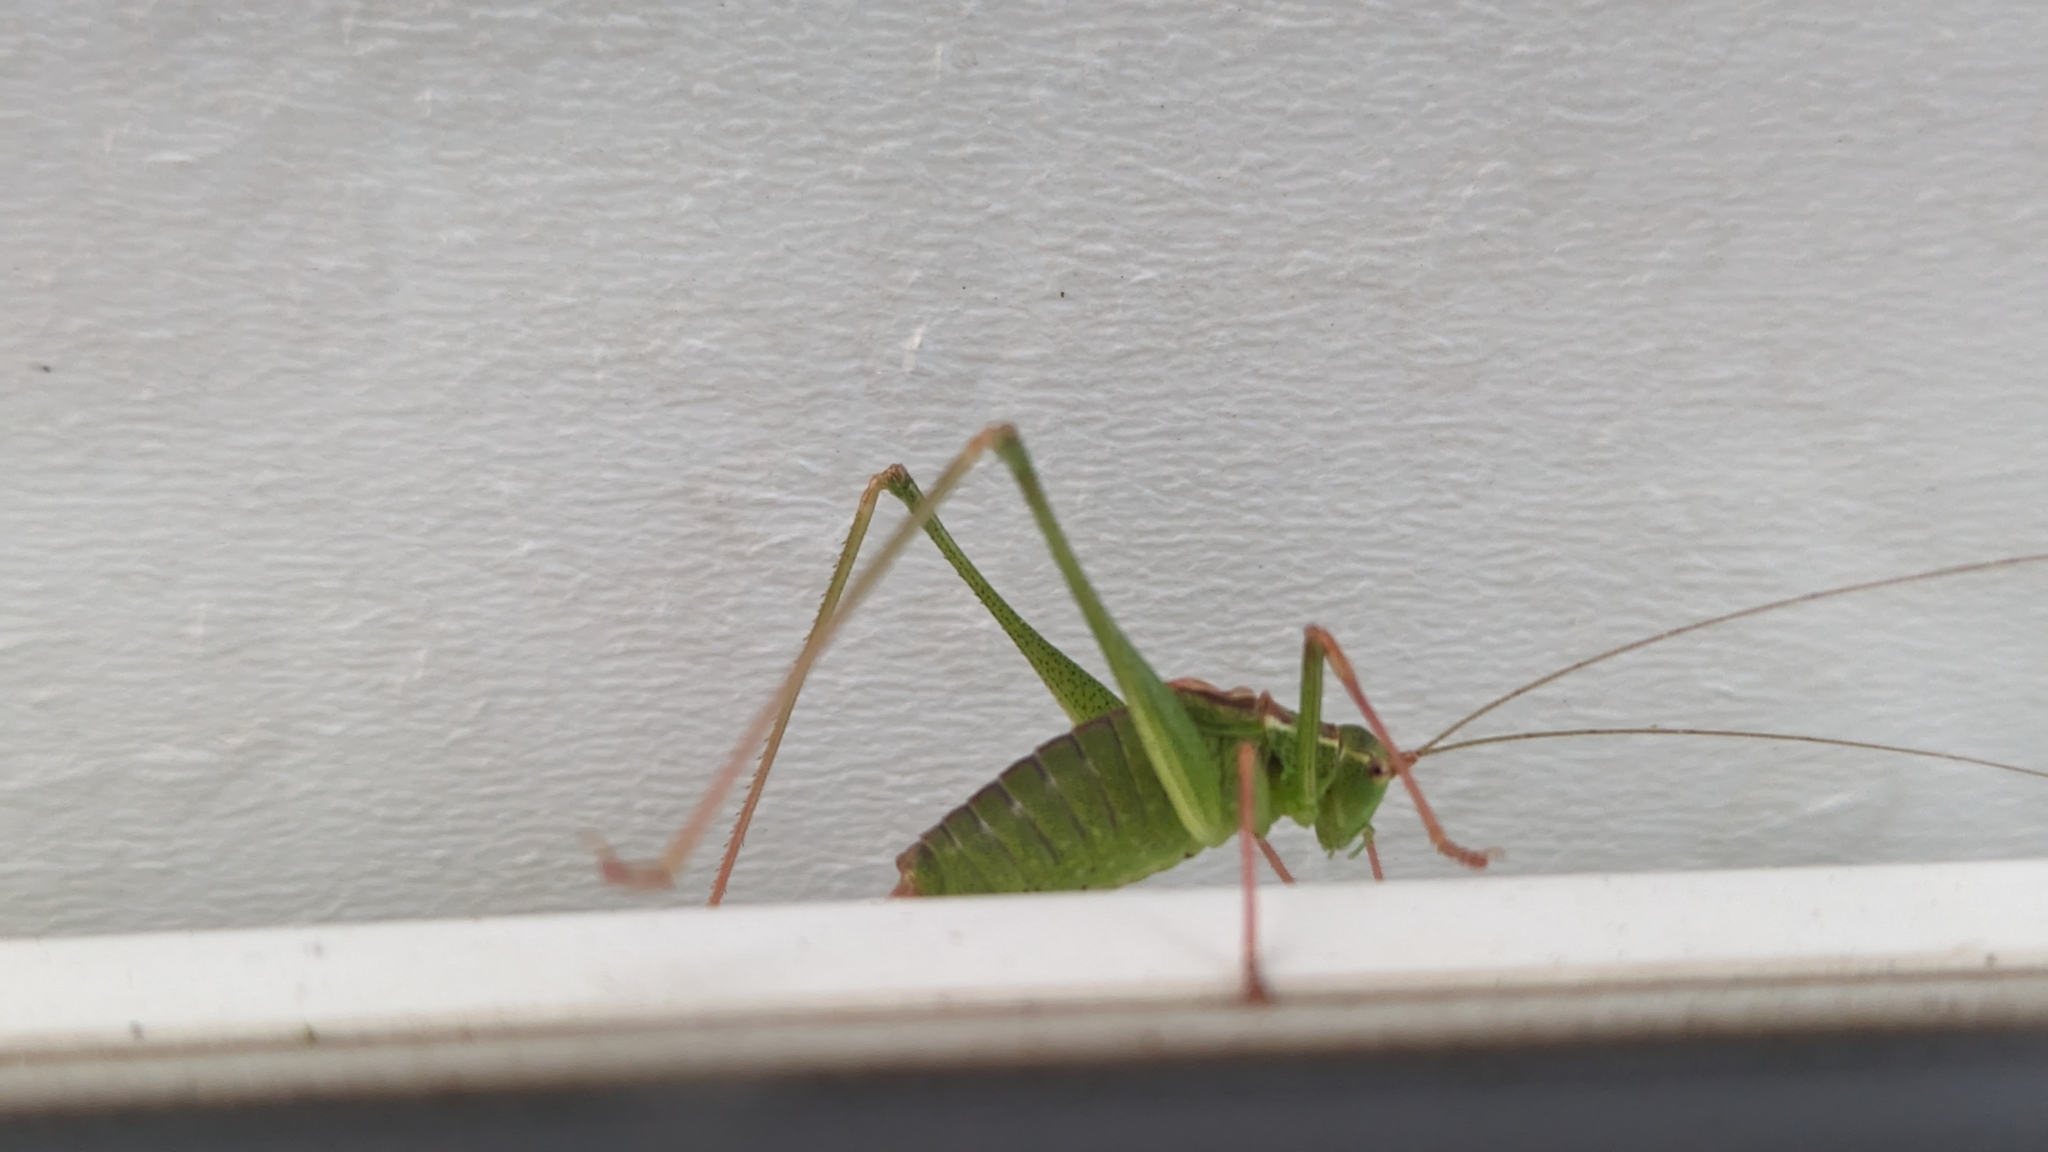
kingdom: Animalia
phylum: Arthropoda
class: Insecta
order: Orthoptera
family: Tettigoniidae
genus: Leptophyes
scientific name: Leptophyes punctatissima
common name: Speckled bush-cricket
